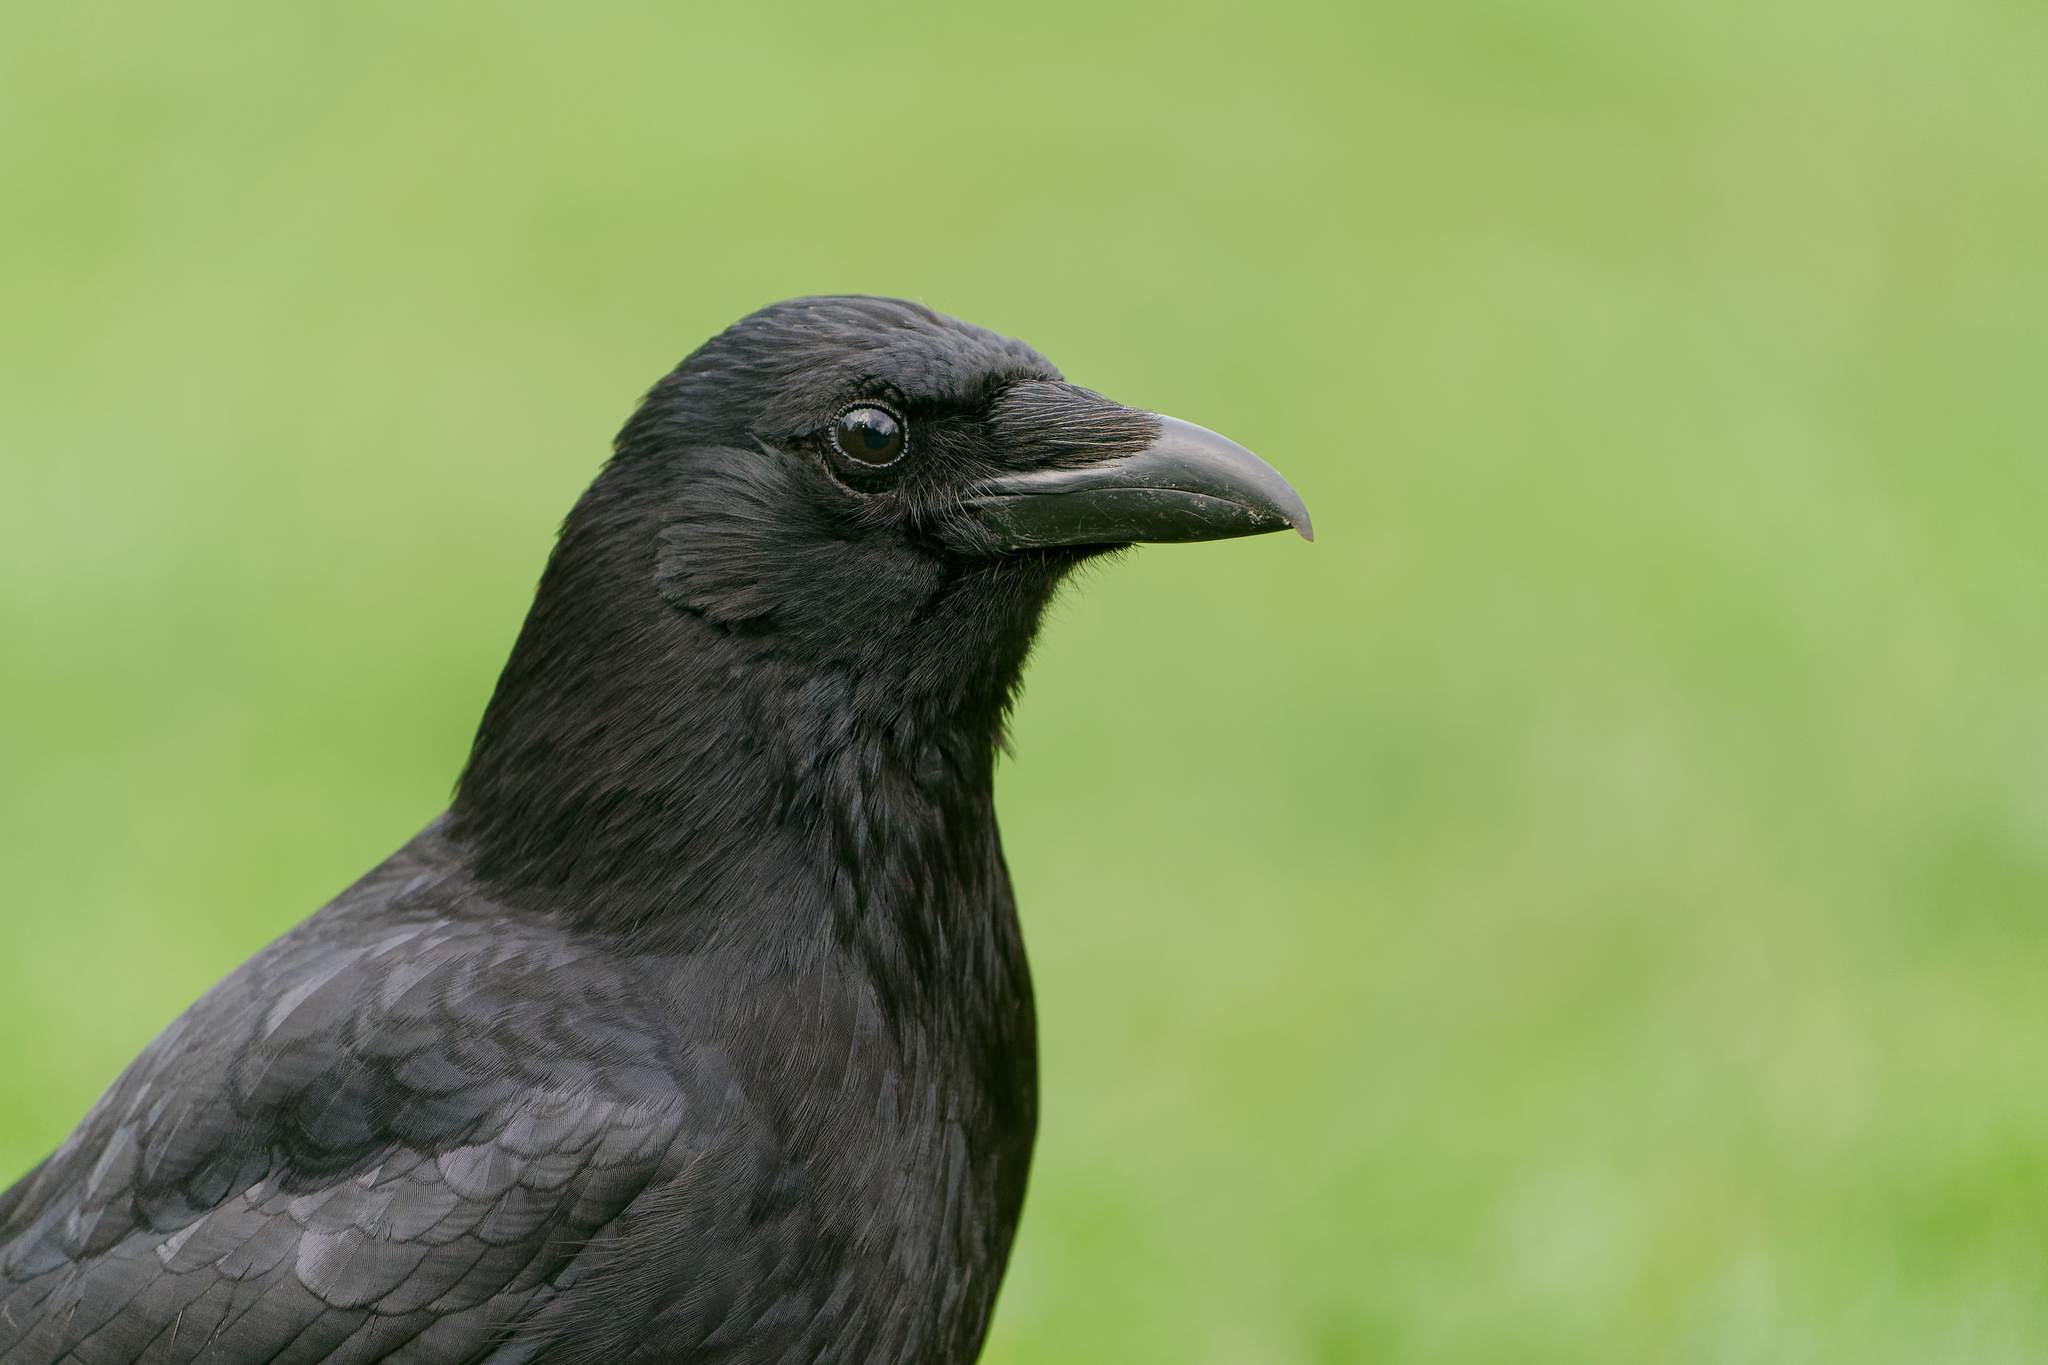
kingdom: Animalia
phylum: Chordata
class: Aves
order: Passeriformes
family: Corvidae
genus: Corvus
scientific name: Corvus corone
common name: Carrion crow
